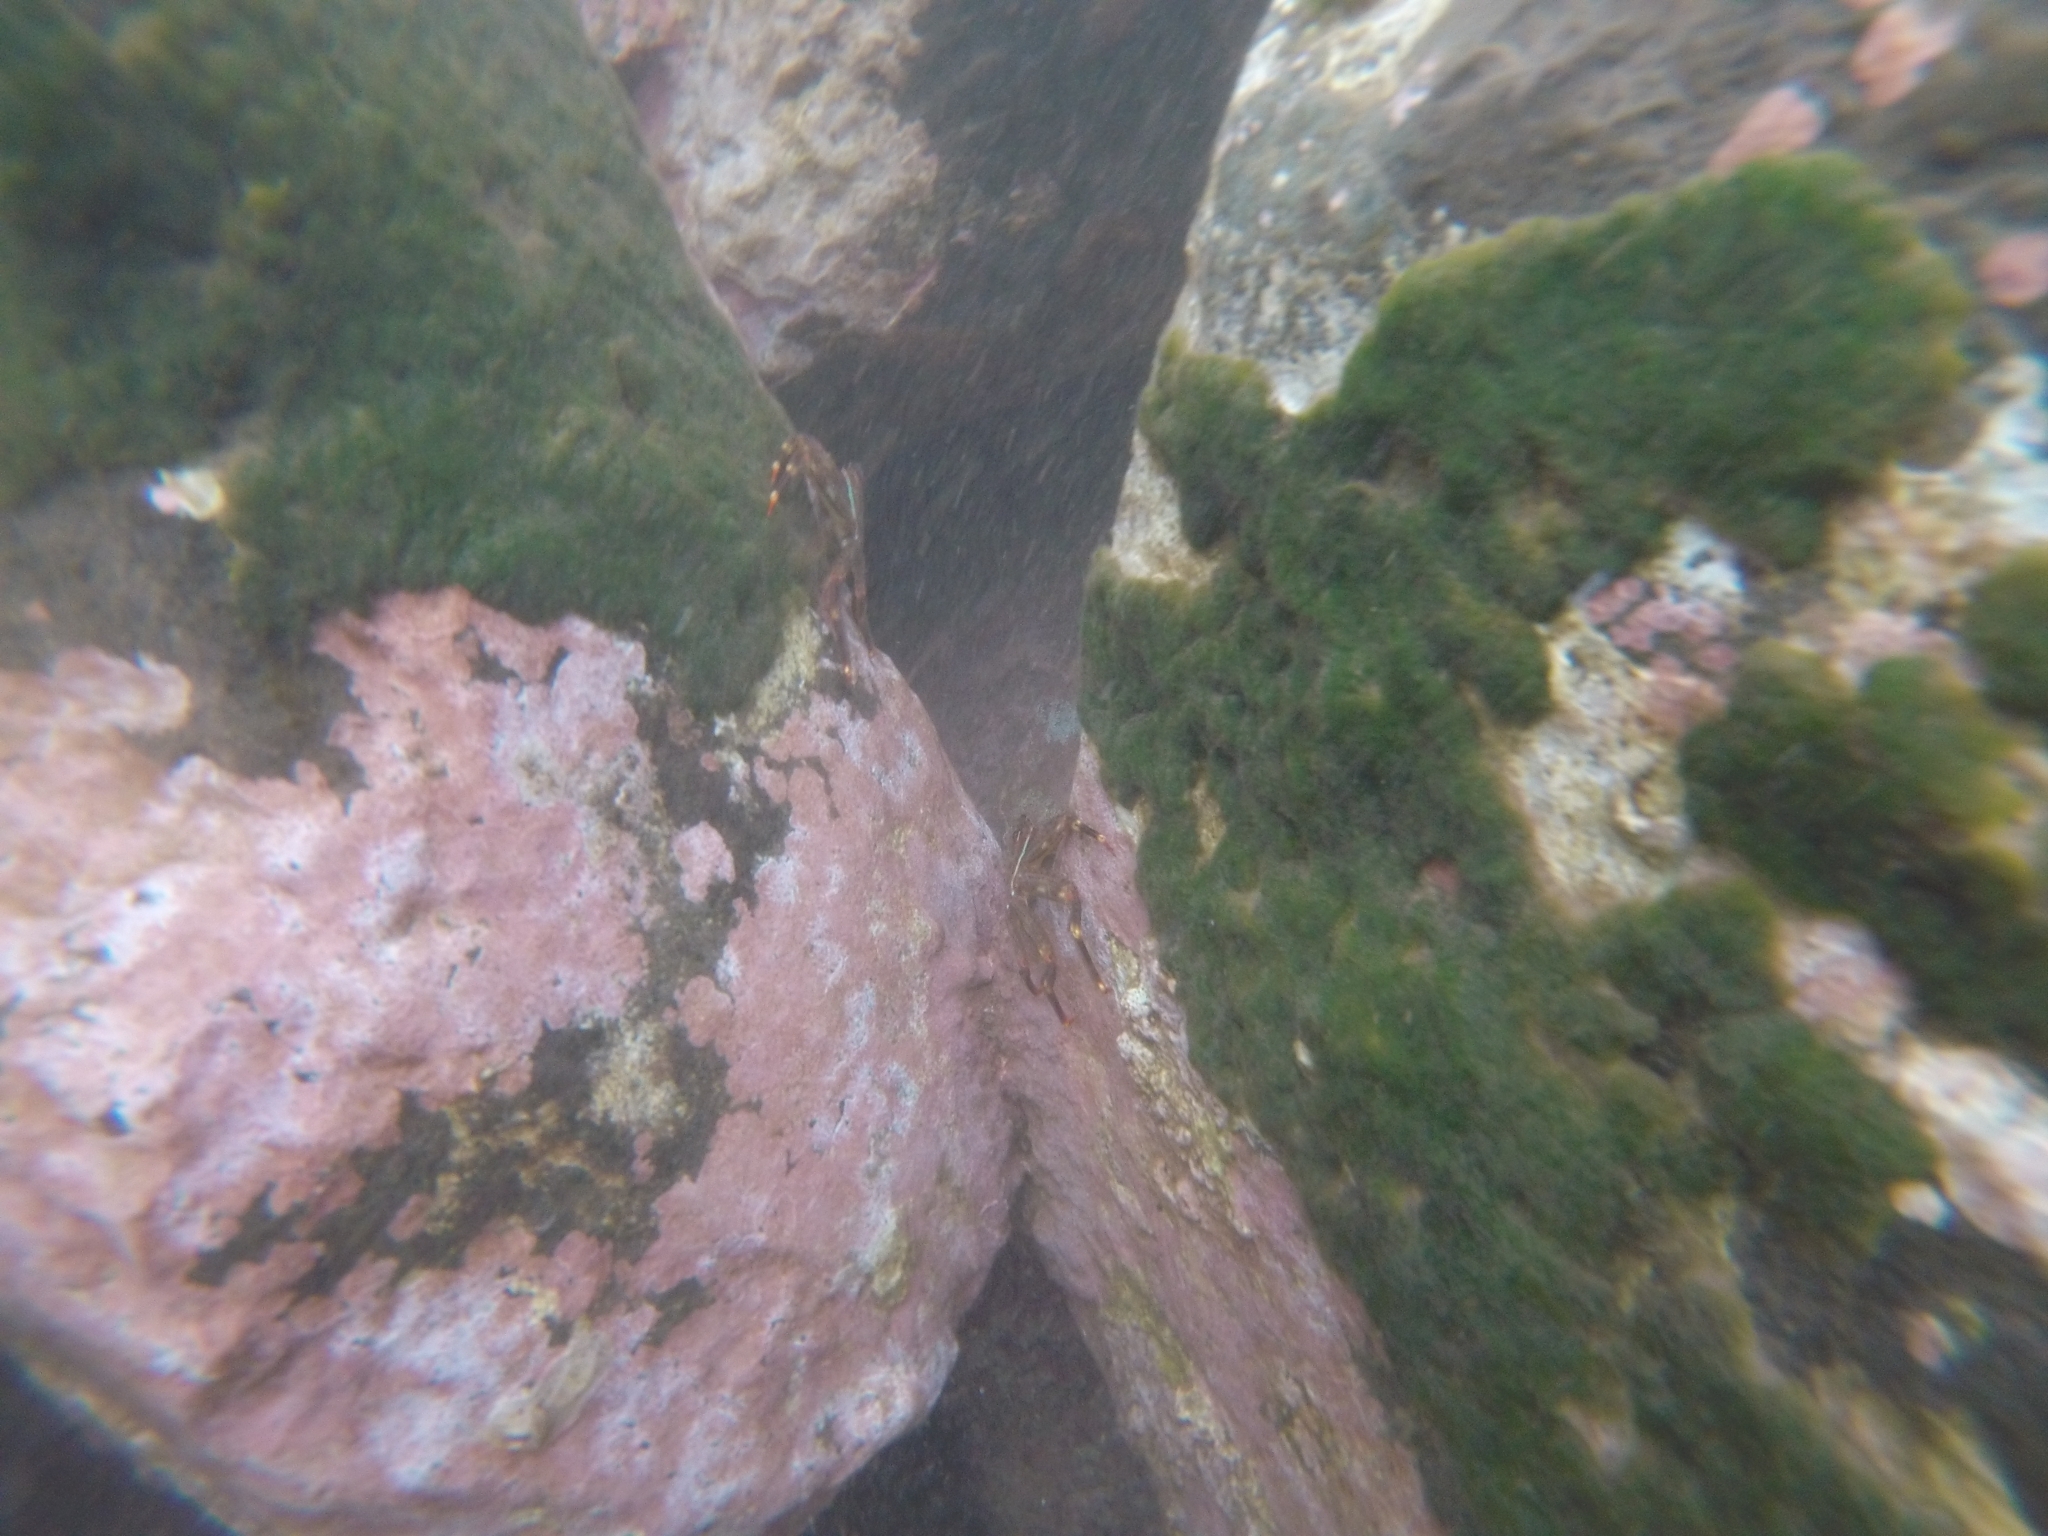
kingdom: Animalia
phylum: Arthropoda
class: Malacostraca
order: Decapoda
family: Percnidae
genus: Percnon
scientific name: Percnon gibbesi
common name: Nimble spray crab
